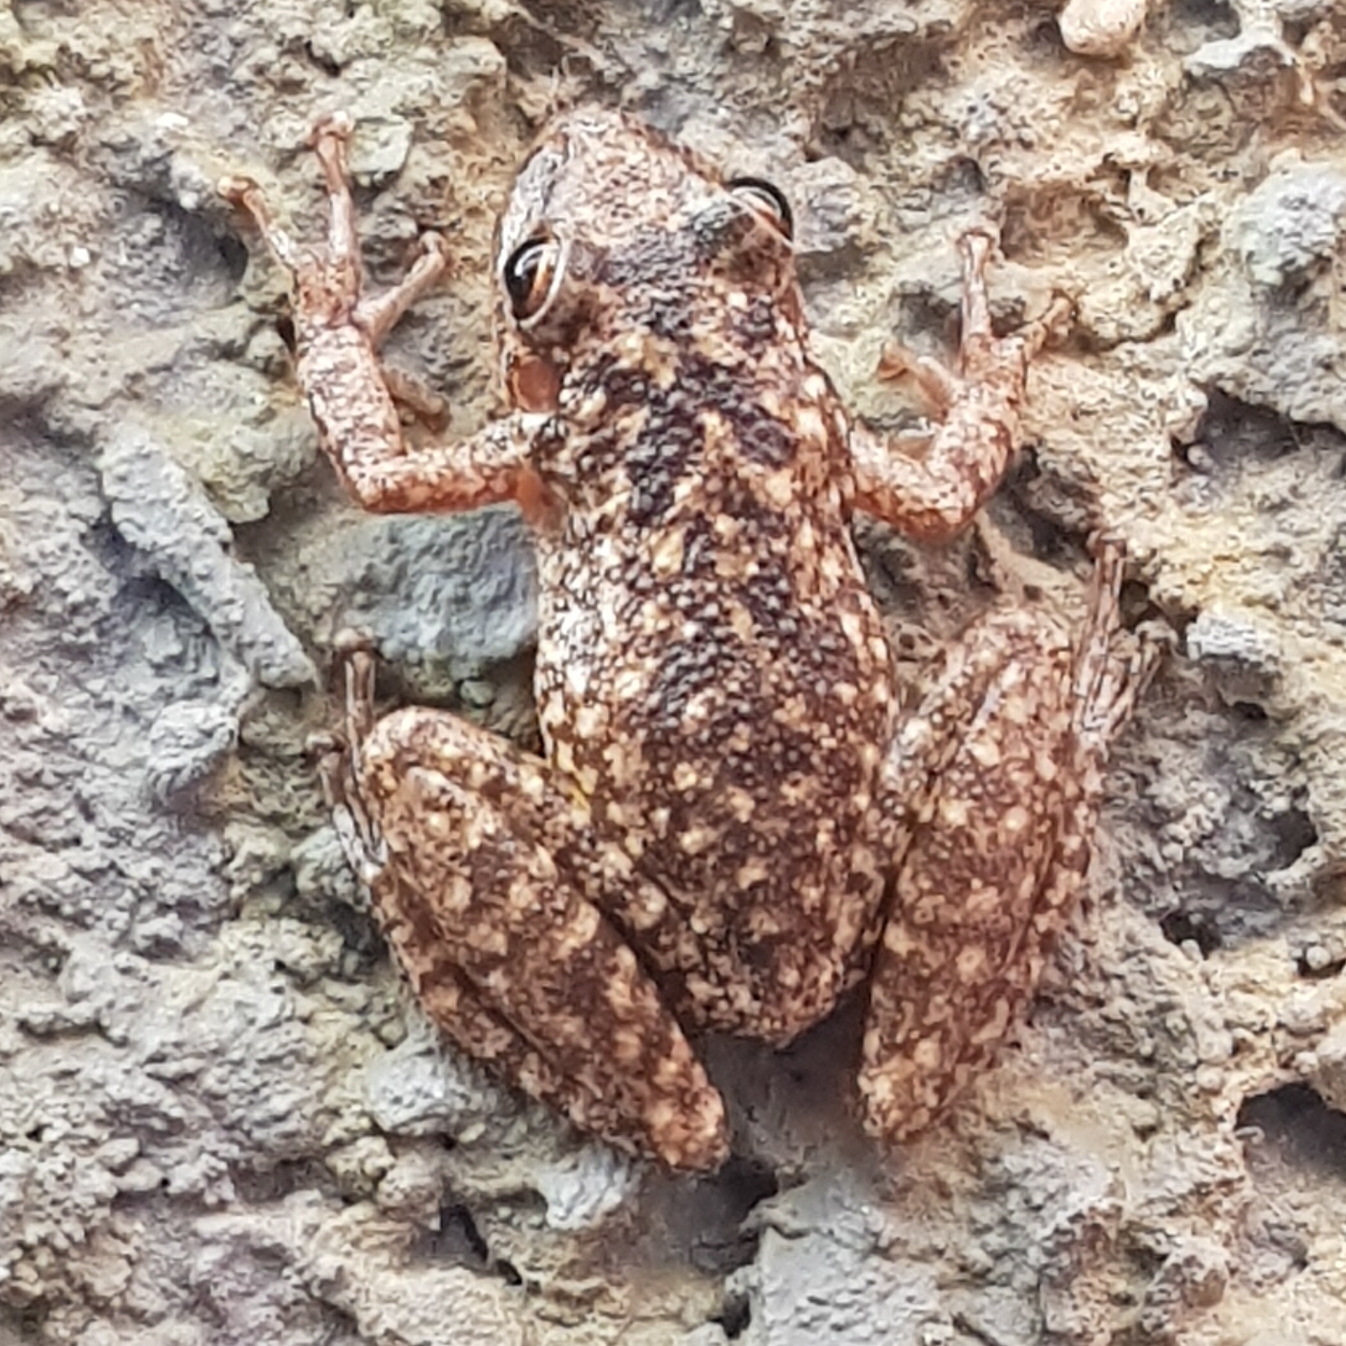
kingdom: Animalia
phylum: Chordata
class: Amphibia
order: Anura
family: Hylidae
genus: Scinax
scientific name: Scinax fuscovarius
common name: Fuscous-blotched treefrog
